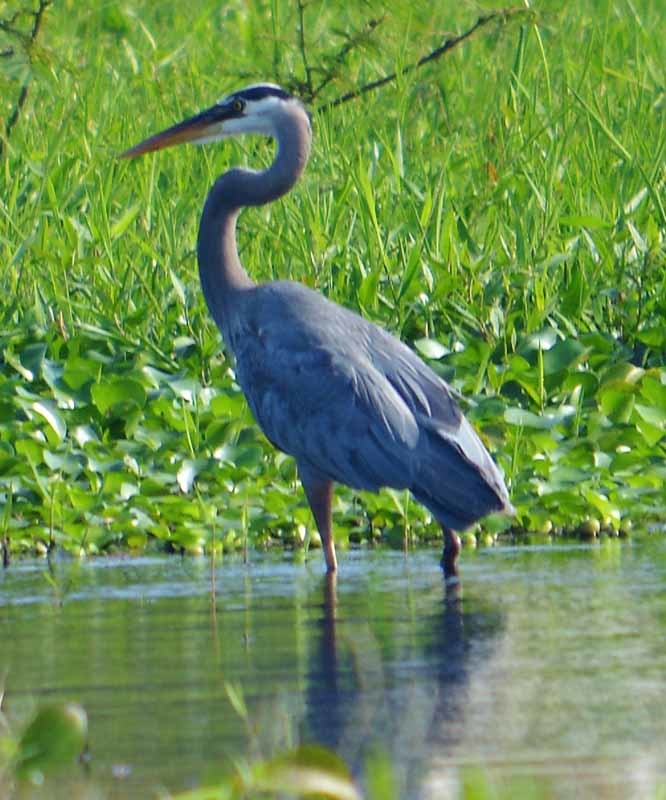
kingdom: Animalia
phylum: Chordata
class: Aves
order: Pelecaniformes
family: Ardeidae
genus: Ardea
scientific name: Ardea herodias
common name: Great blue heron
